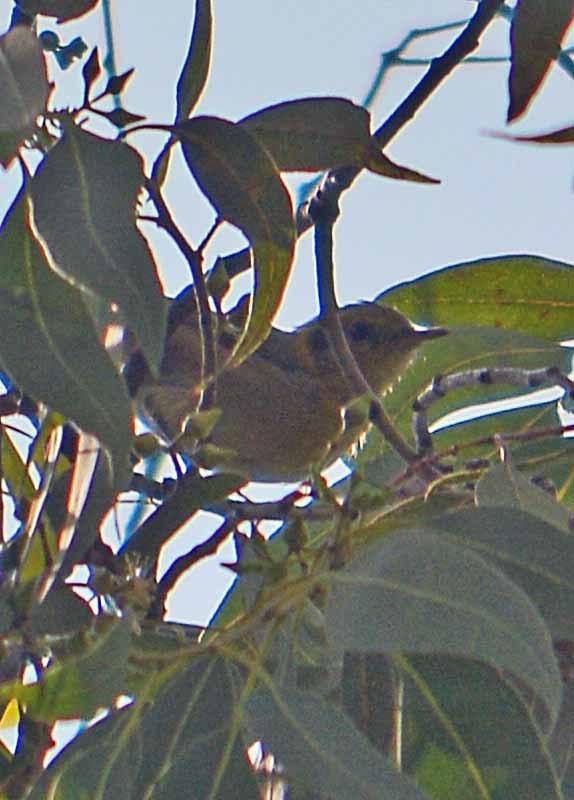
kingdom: Animalia
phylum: Chordata
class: Aves
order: Passeriformes
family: Peucedramidae
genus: Peucedramus
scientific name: Peucedramus taeniatus
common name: Olive warbler
